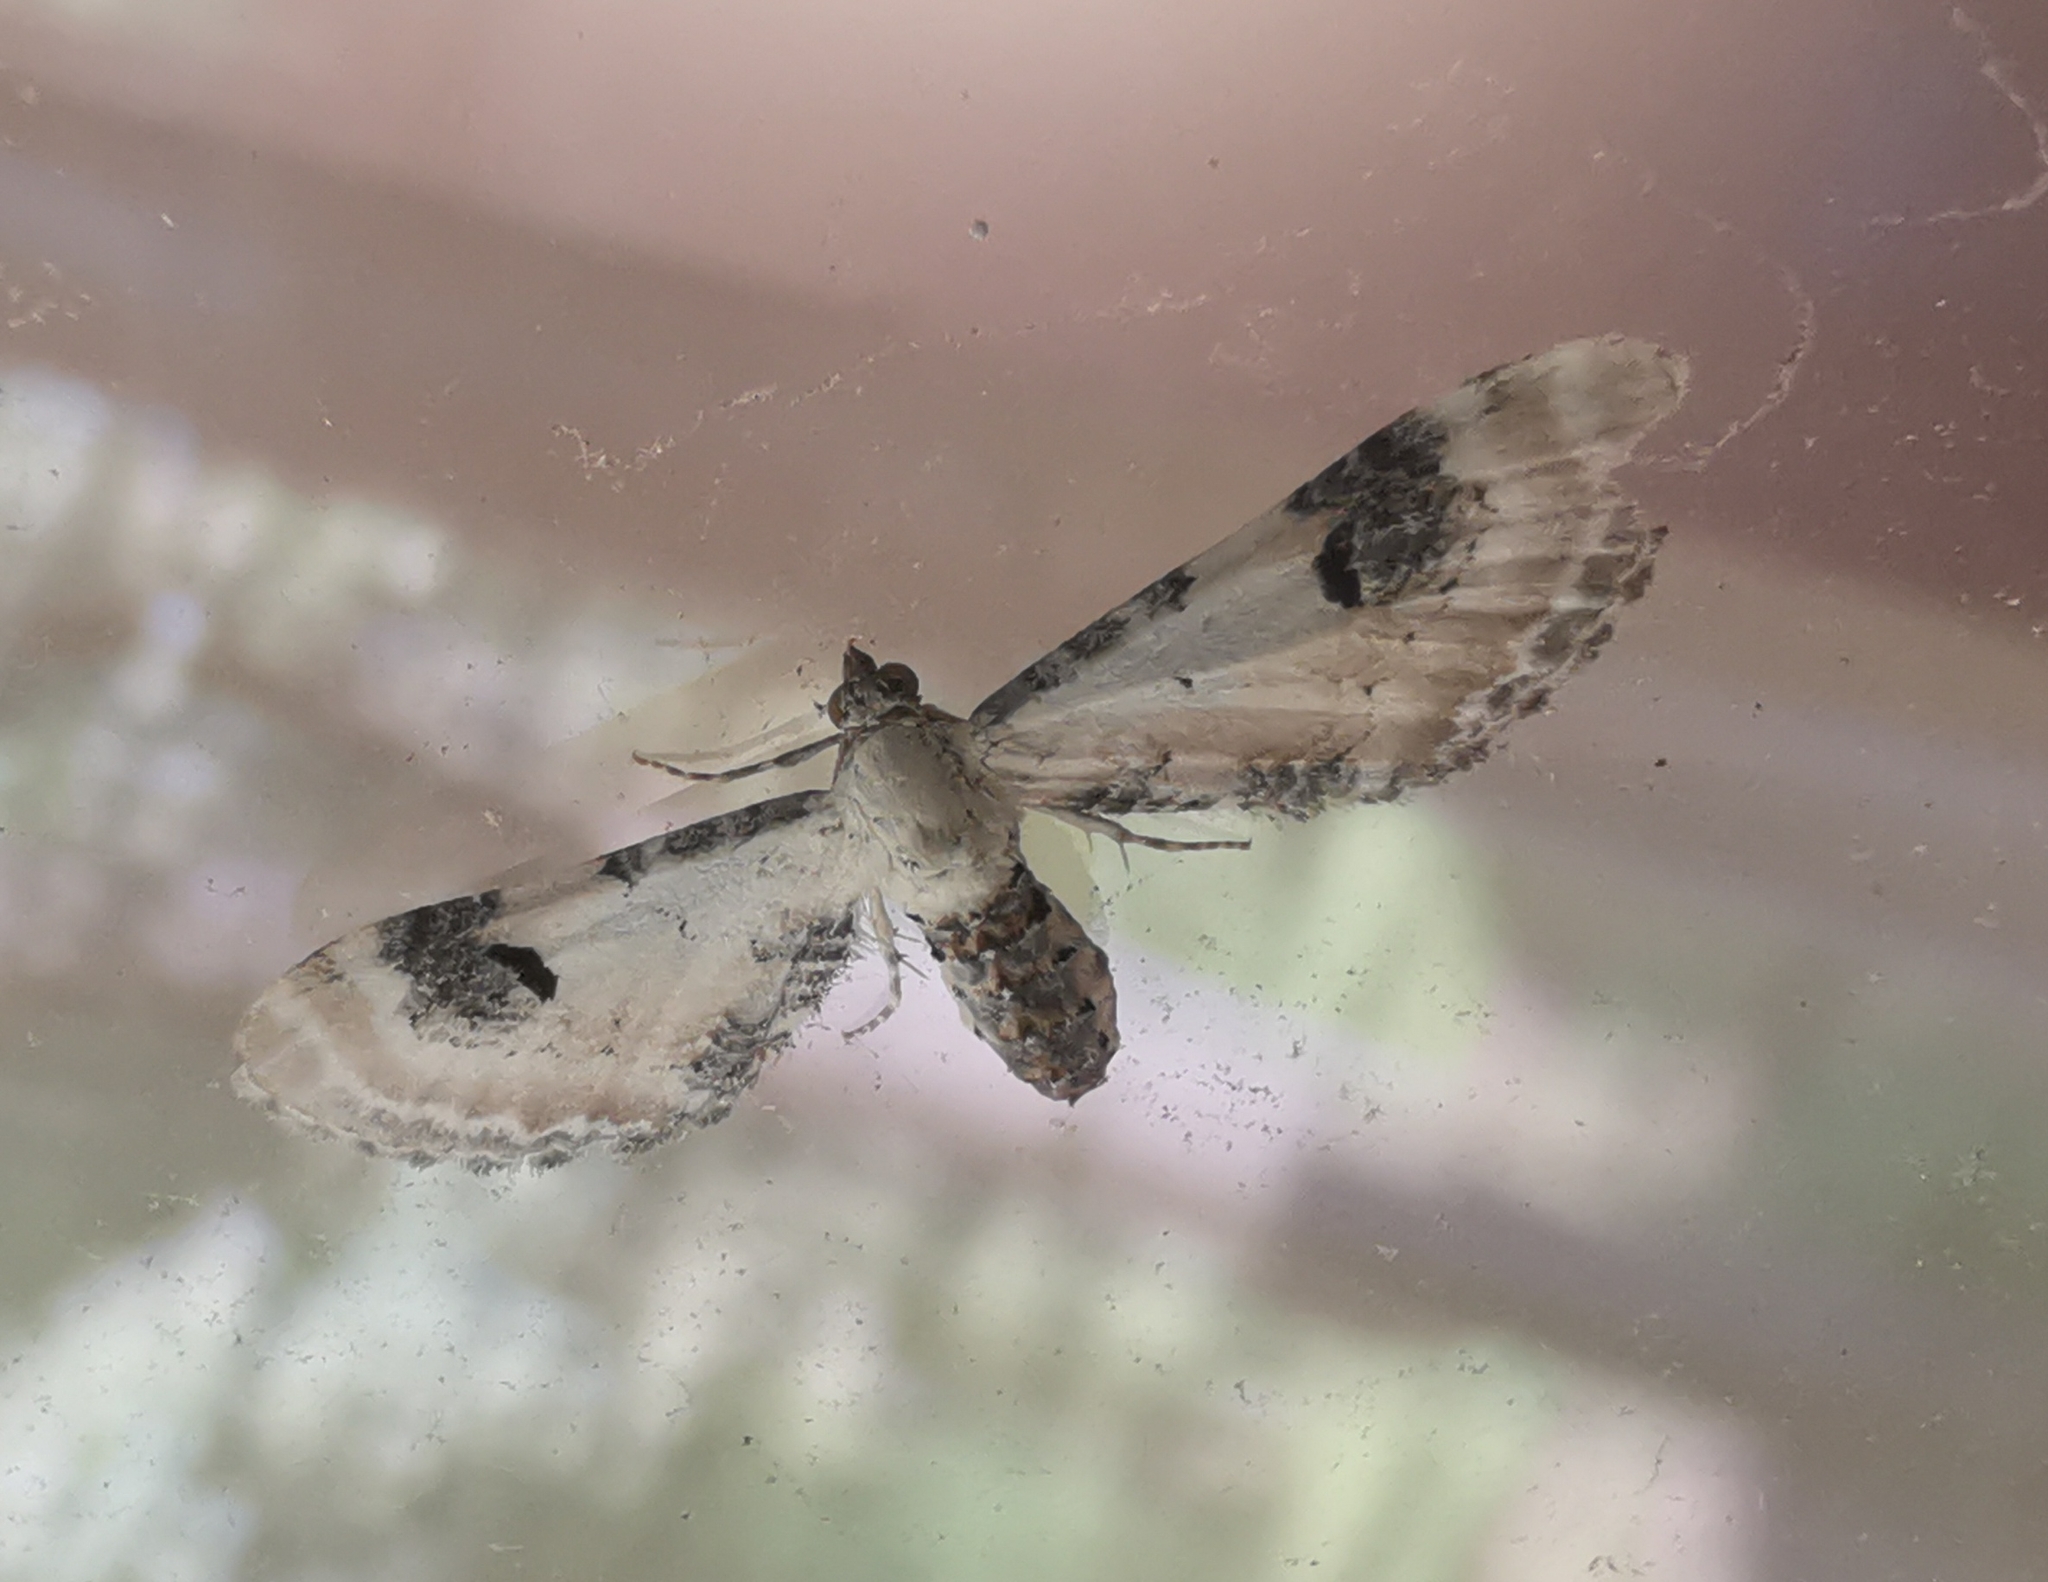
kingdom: Animalia
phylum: Arthropoda
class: Insecta
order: Lepidoptera
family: Geometridae
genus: Eupithecia
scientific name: Eupithecia centaureata
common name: Lime-speck pug
